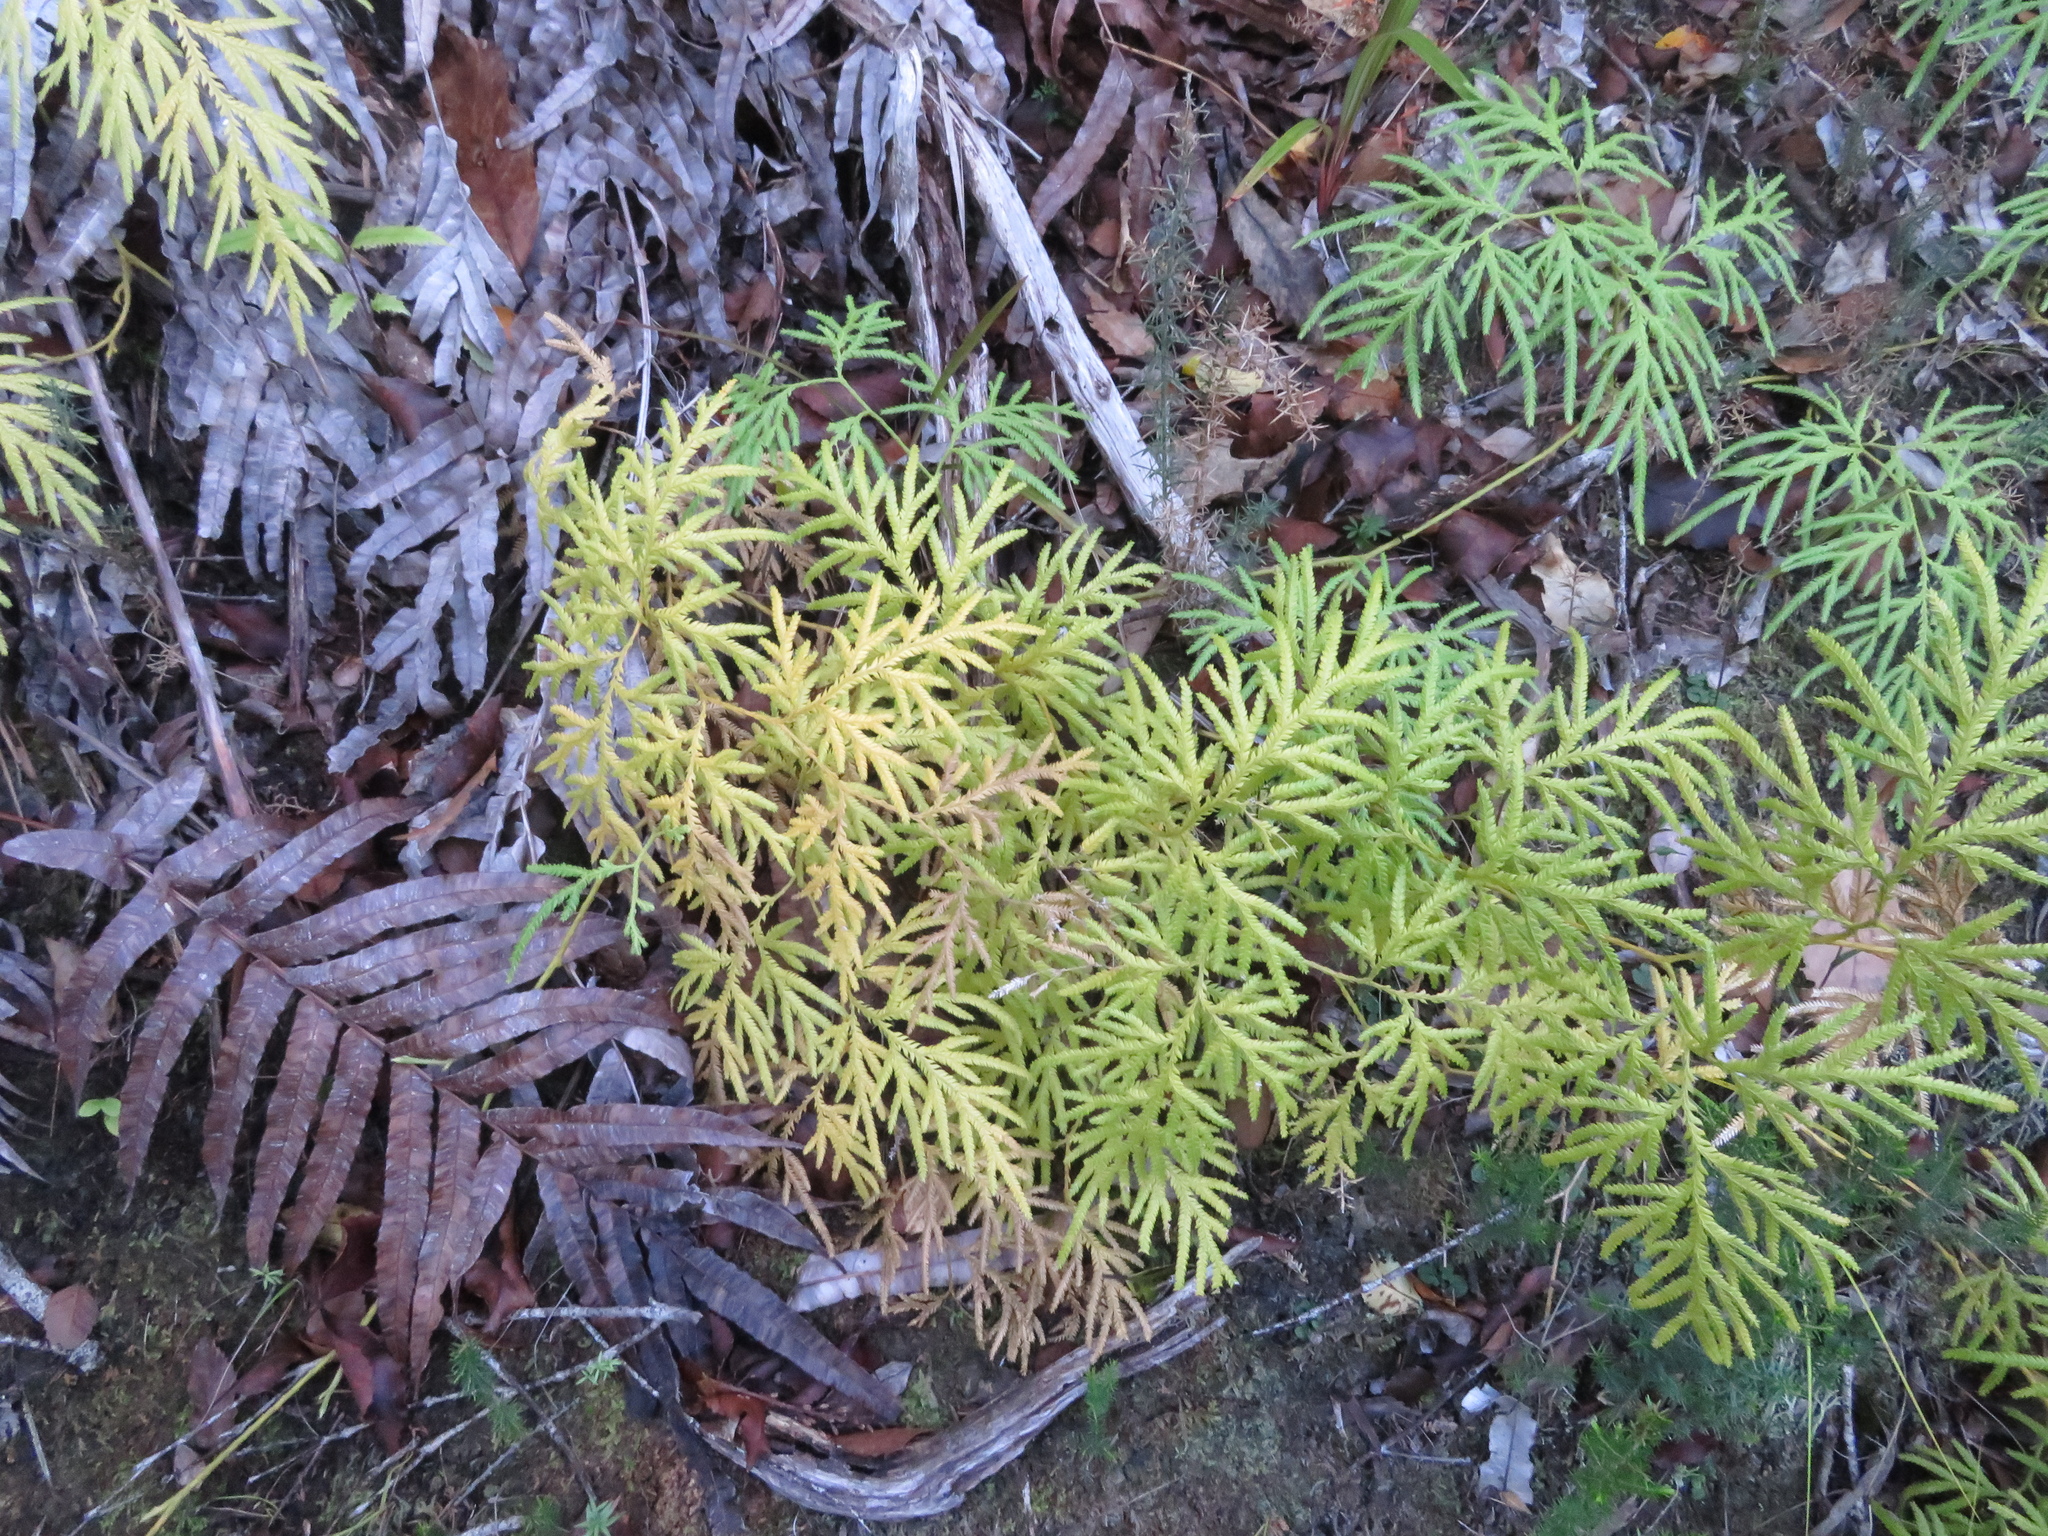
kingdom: Plantae
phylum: Tracheophyta
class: Lycopodiopsida
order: Lycopodiales
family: Lycopodiaceae
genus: Lycopodium
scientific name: Lycopodium volubile
